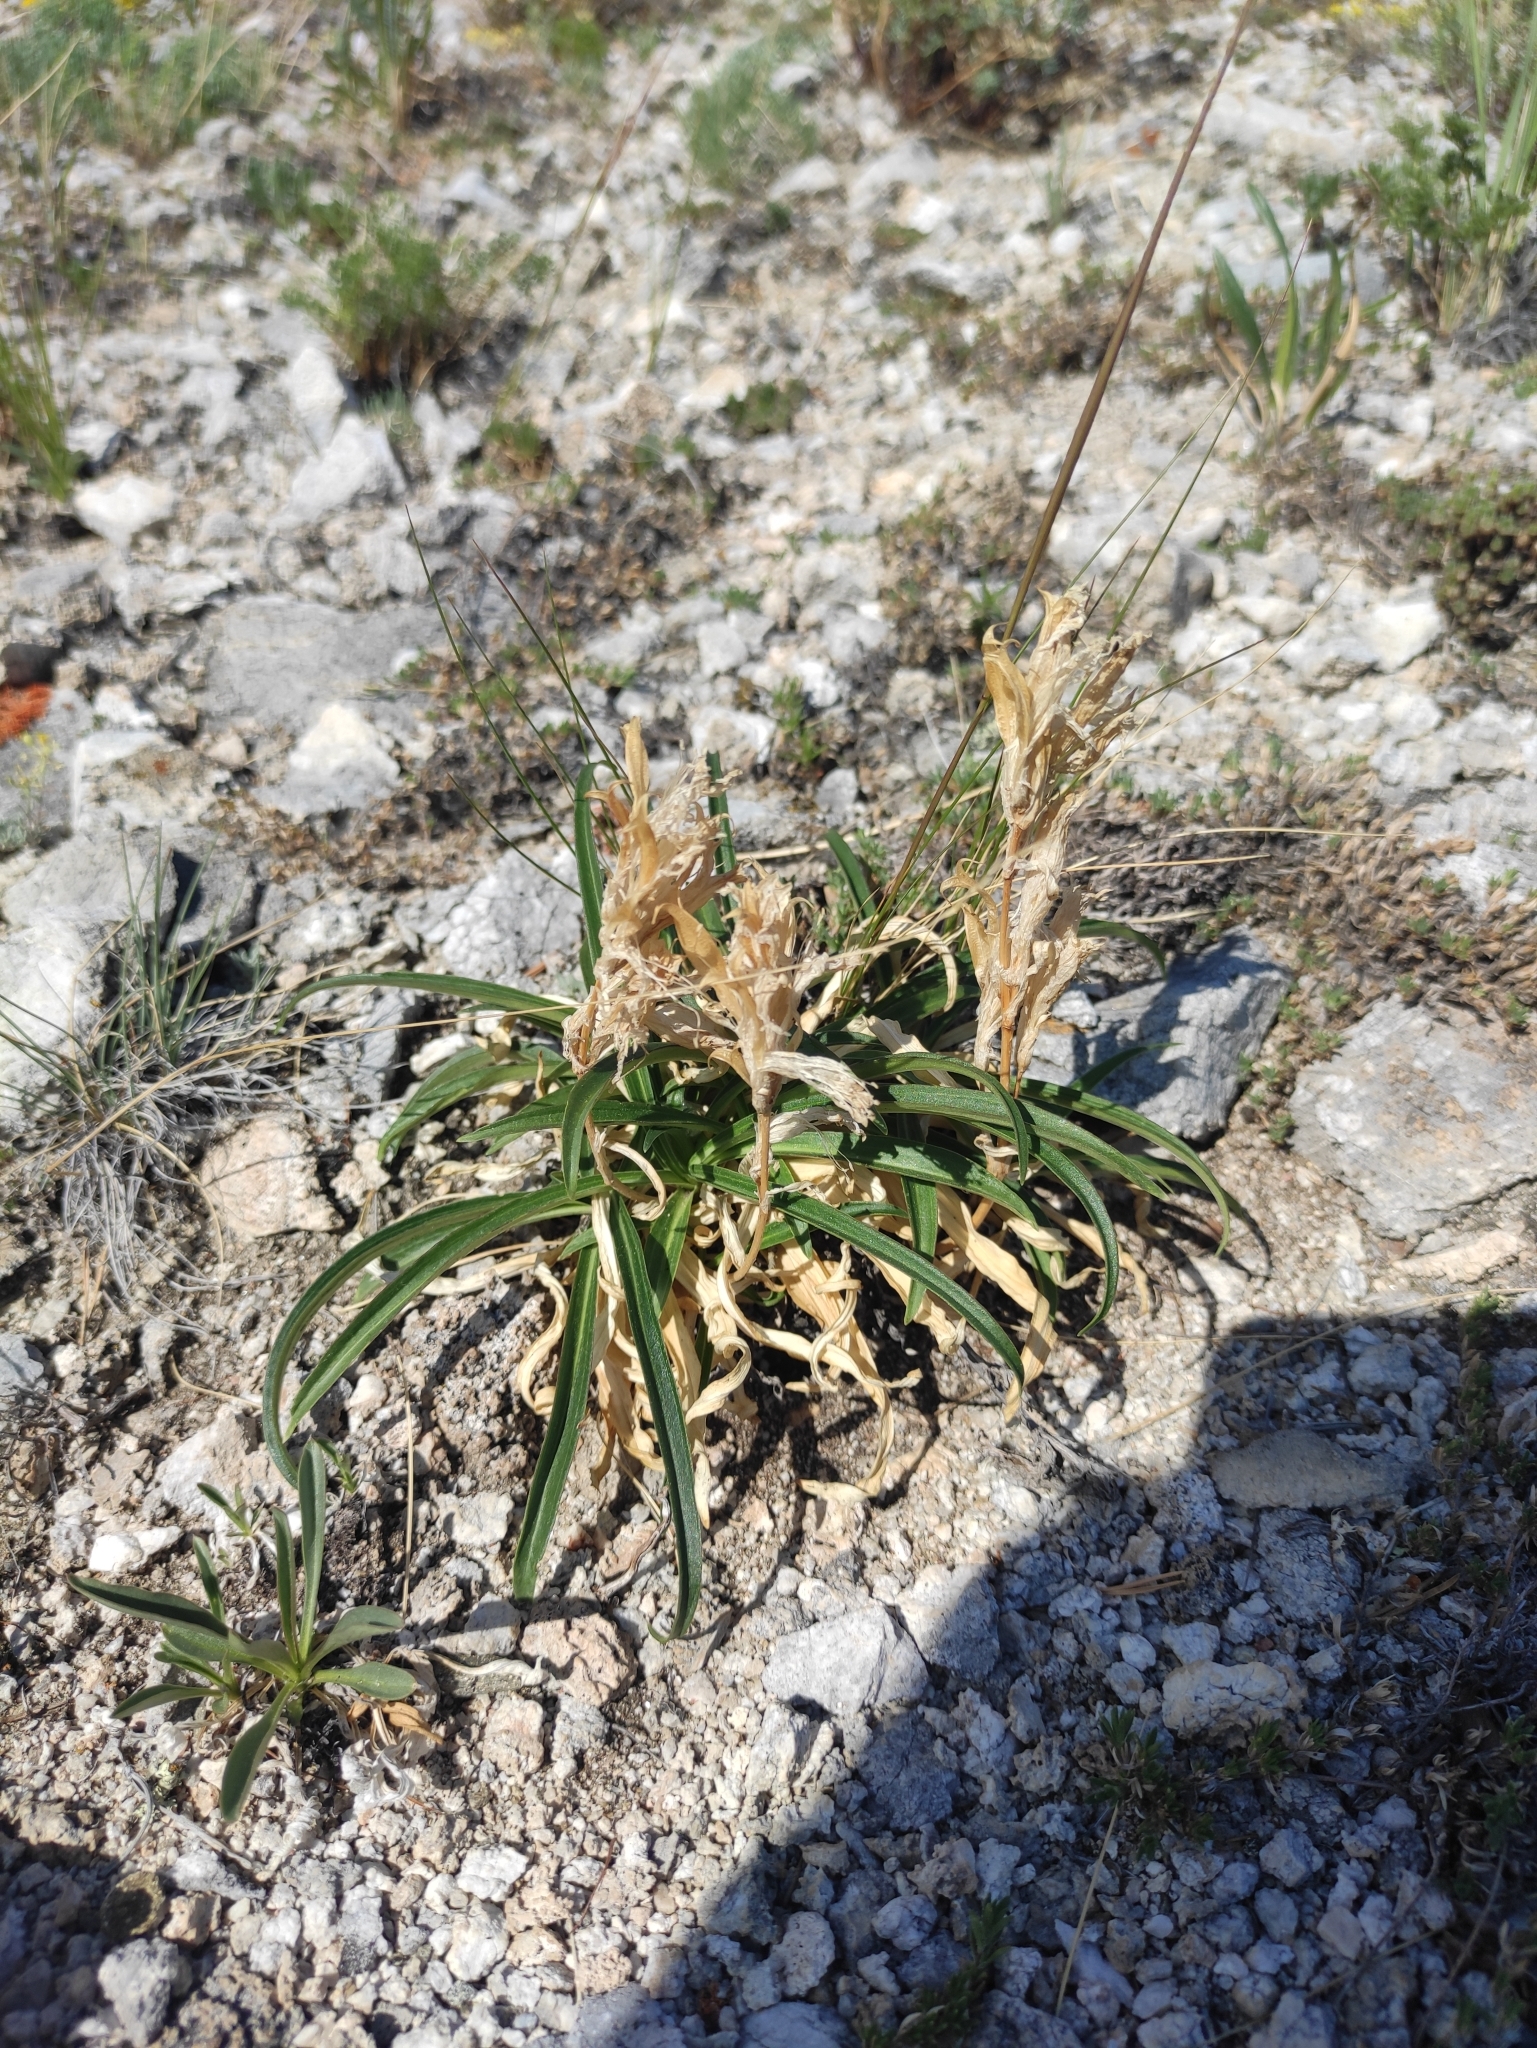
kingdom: Plantae
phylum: Tracheophyta
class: Magnoliopsida
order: Gentianales
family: Gentianaceae
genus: Gentiana
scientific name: Gentiana decumbens
